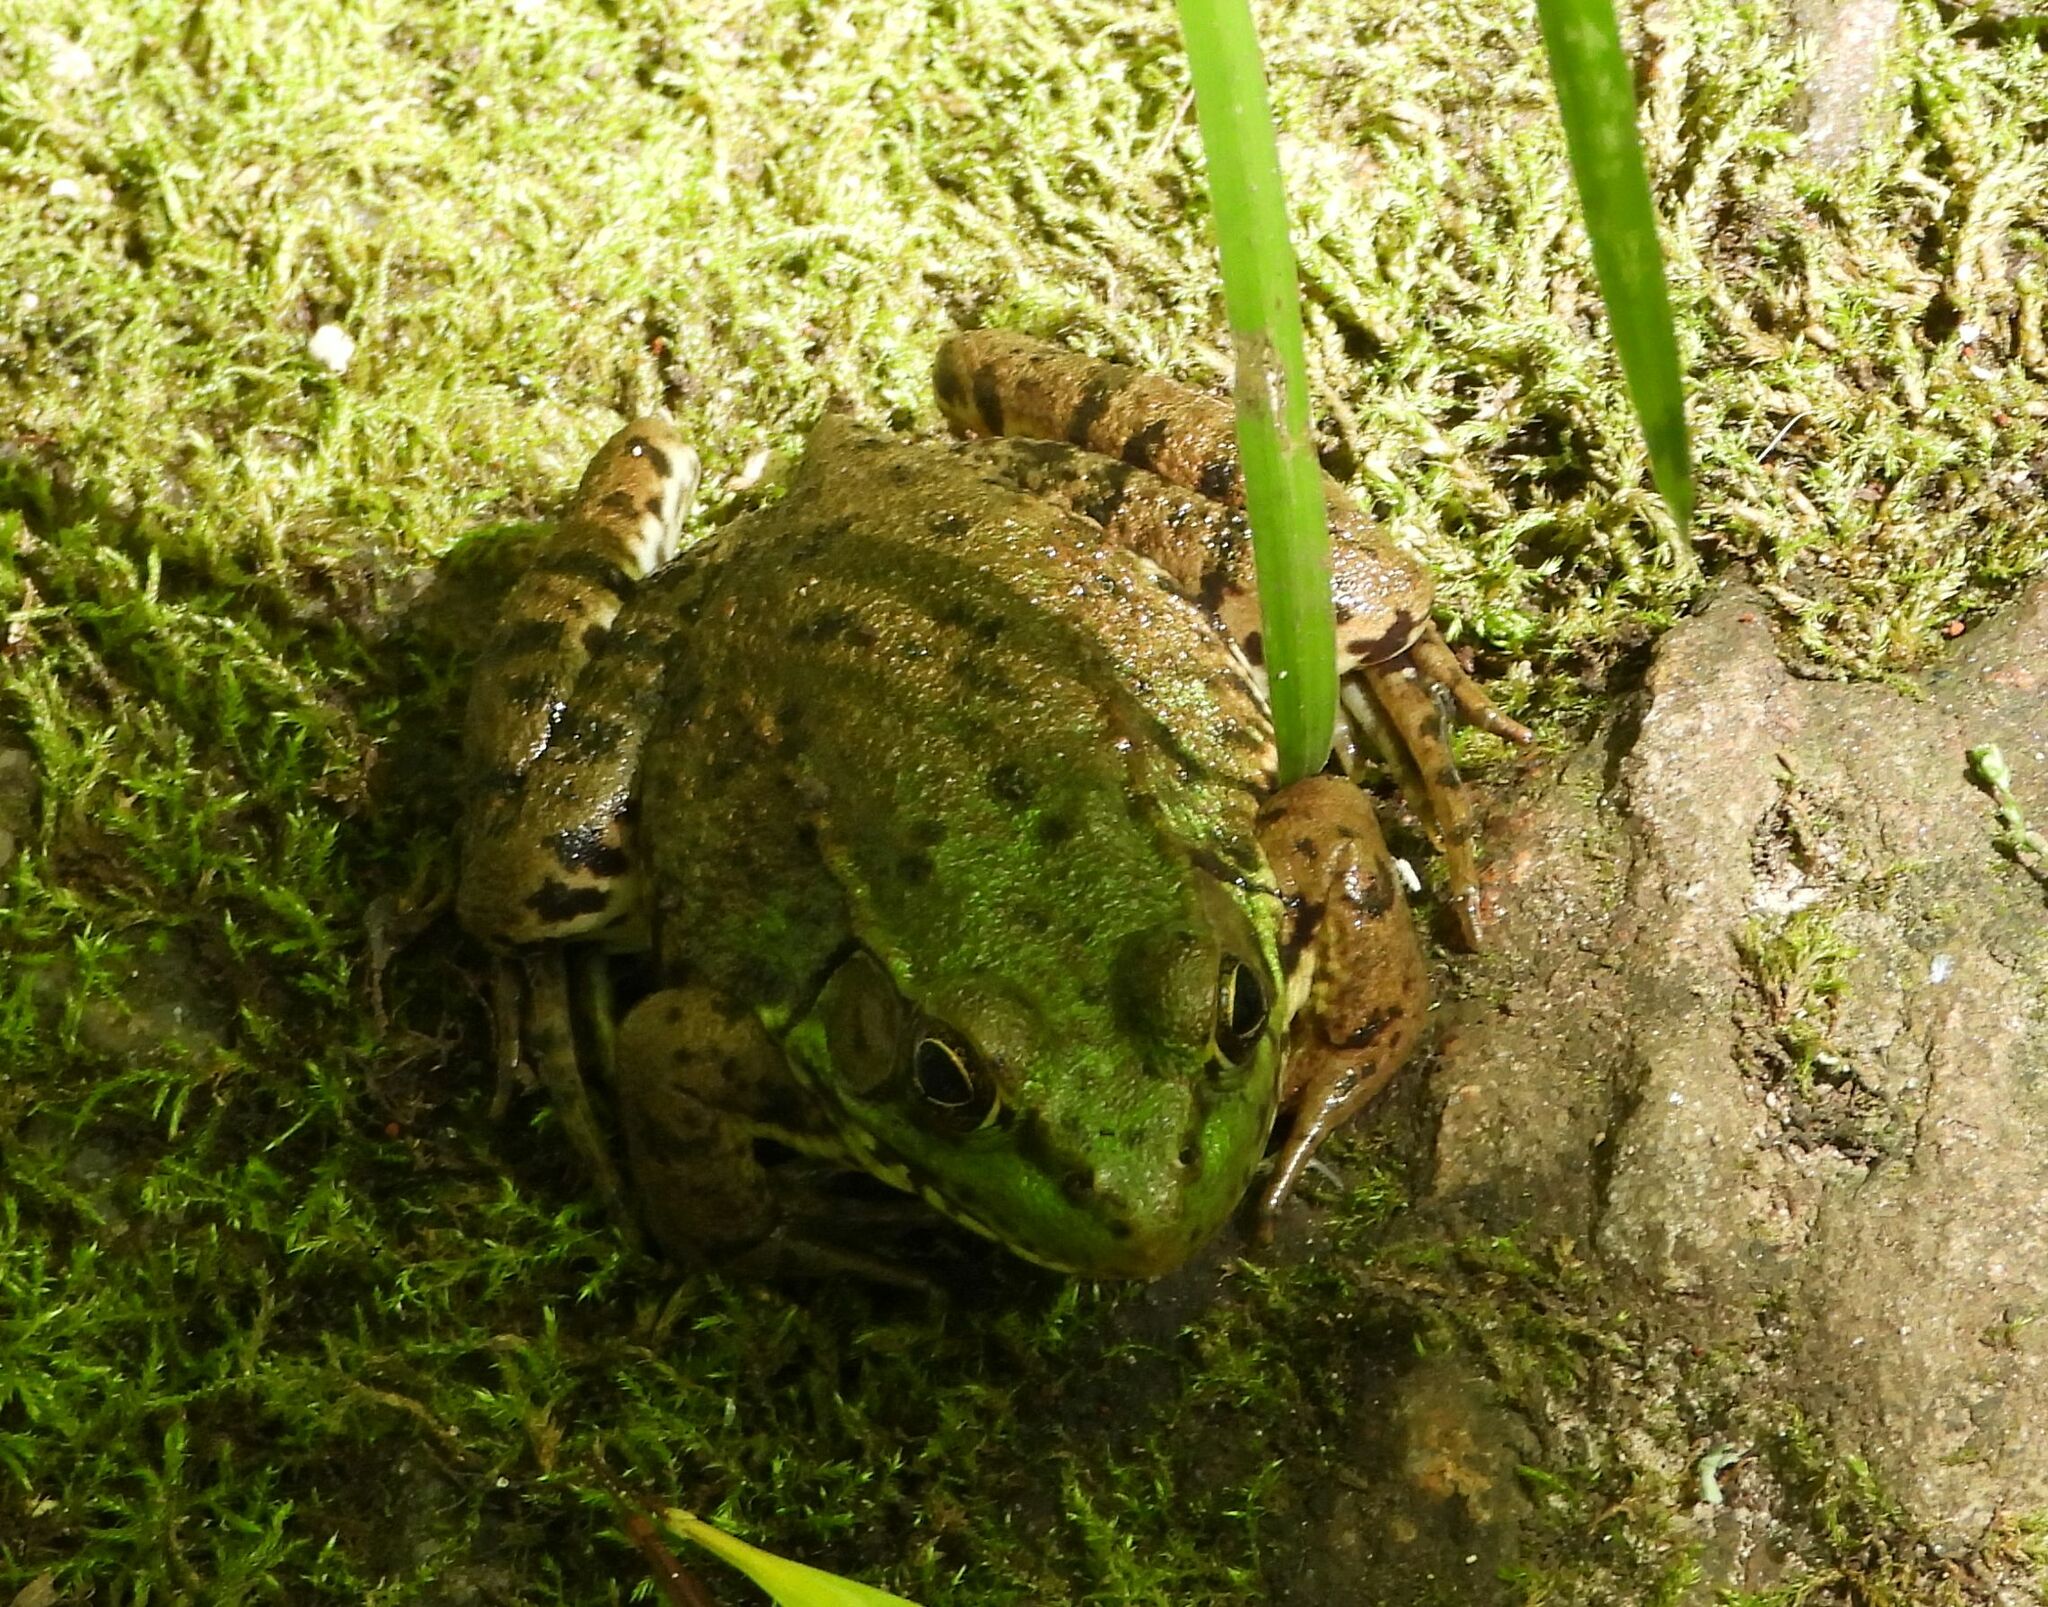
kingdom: Animalia
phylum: Chordata
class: Amphibia
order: Anura
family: Ranidae
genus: Lithobates
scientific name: Lithobates clamitans
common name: Green frog
